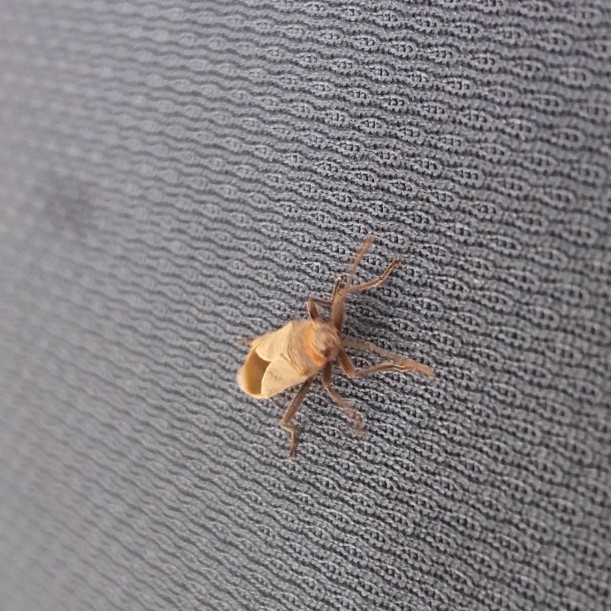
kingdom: Animalia
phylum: Arthropoda
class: Insecta
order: Hemiptera
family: Lygaeidae
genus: Arocatus
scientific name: Arocatus rusticus
